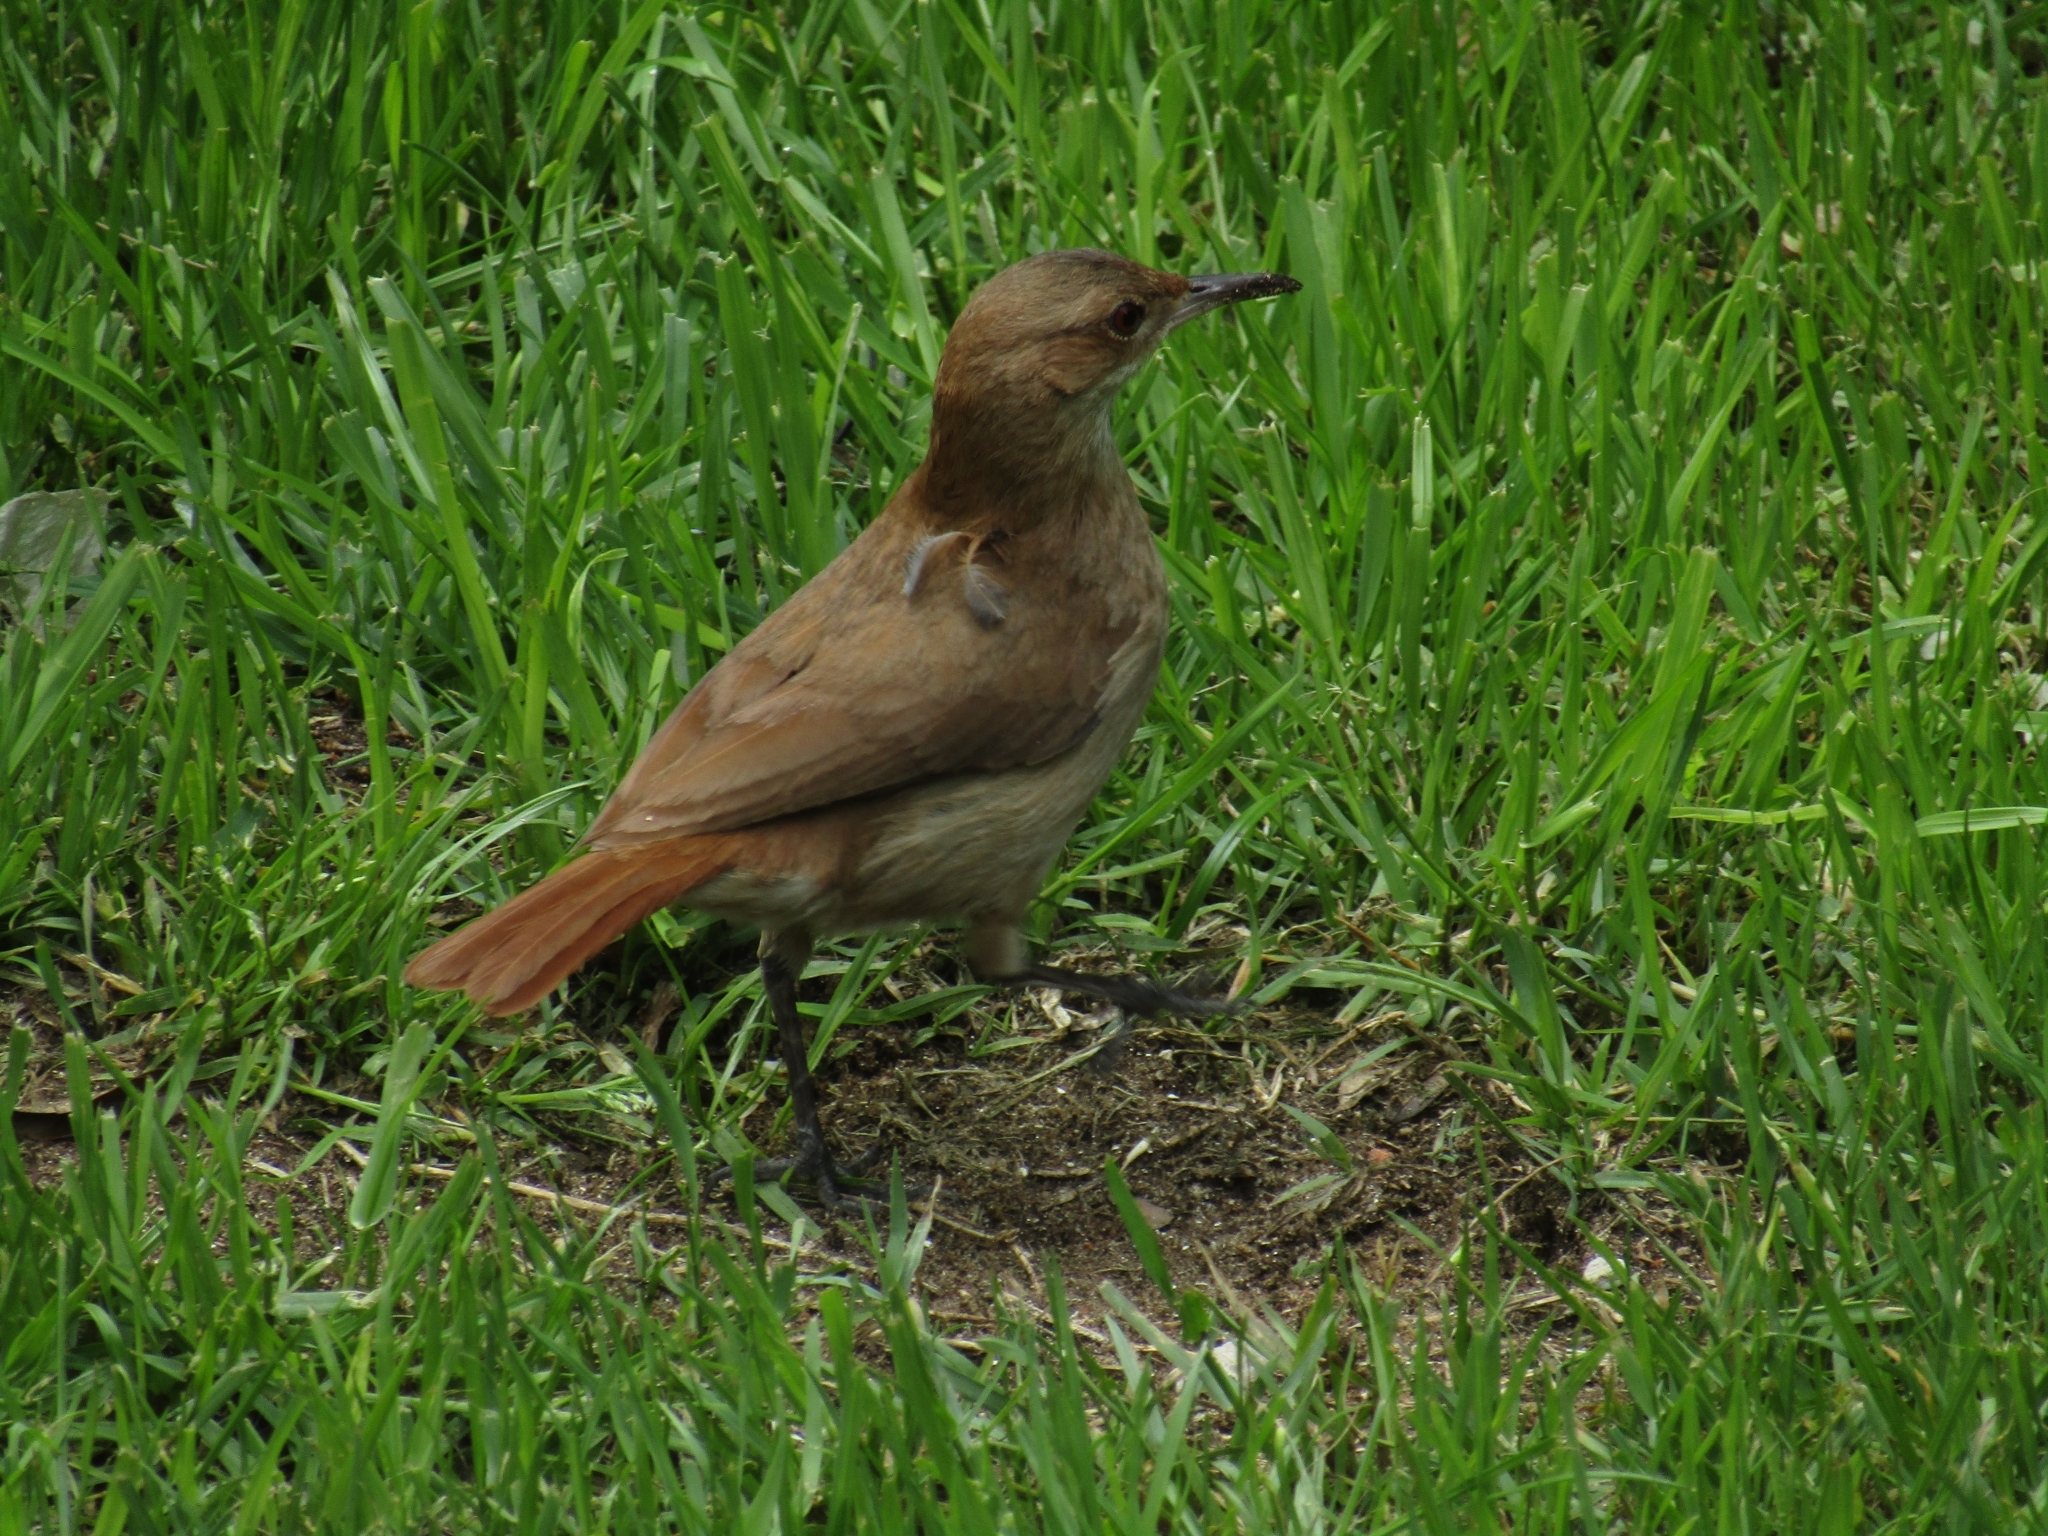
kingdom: Animalia
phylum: Chordata
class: Aves
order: Passeriformes
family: Furnariidae
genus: Furnarius
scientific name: Furnarius rufus
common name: Rufous hornero
